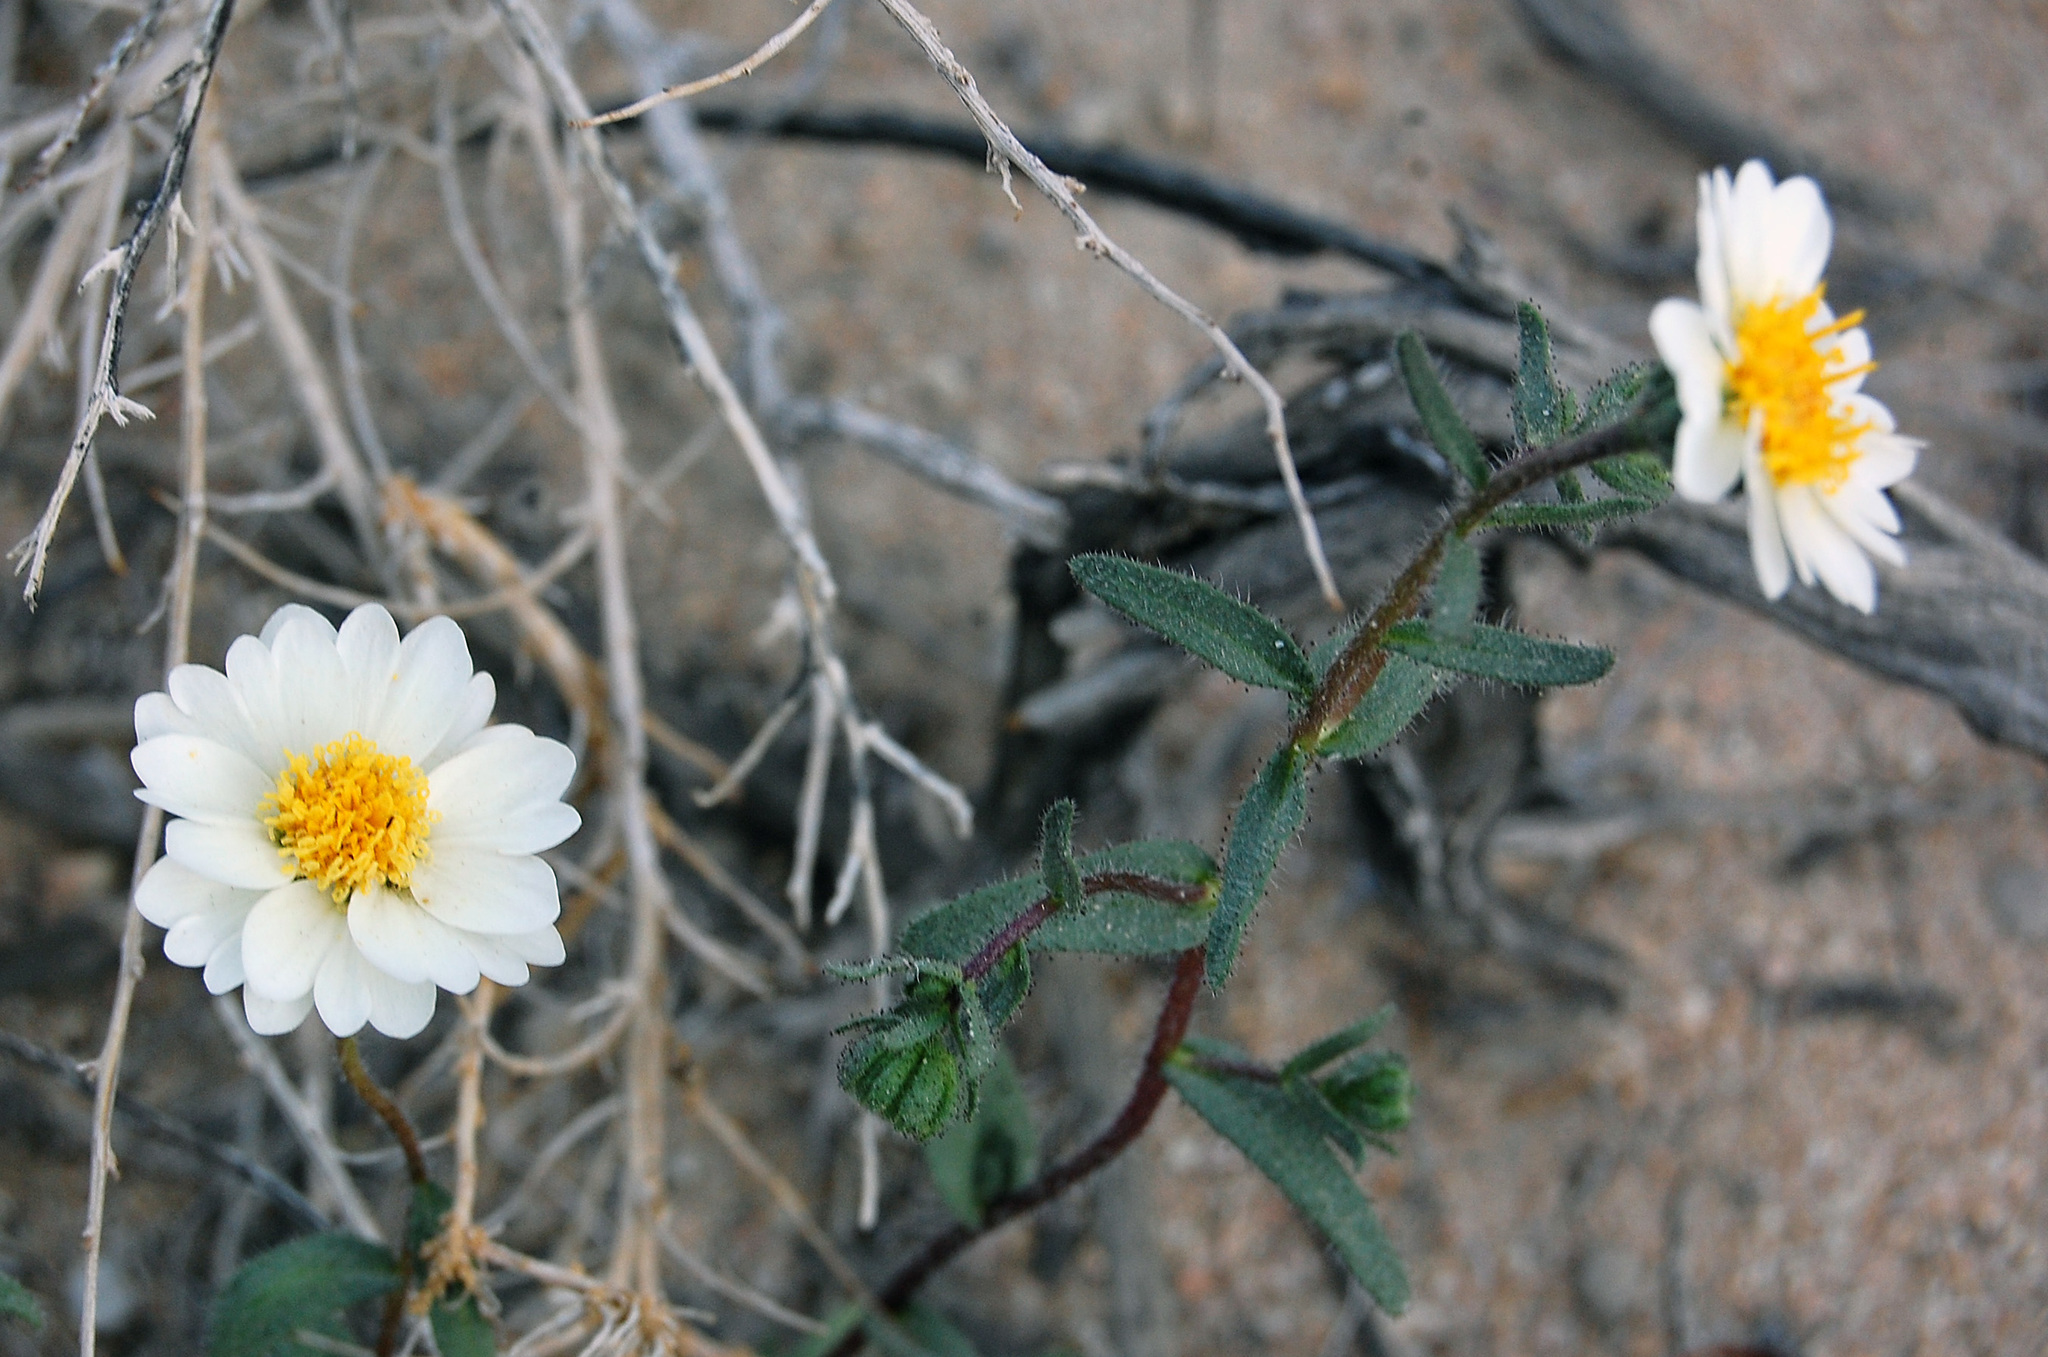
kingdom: Plantae
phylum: Tracheophyta
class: Magnoliopsida
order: Asterales
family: Asteraceae
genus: Layia
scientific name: Layia glandulosa
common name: White layia
